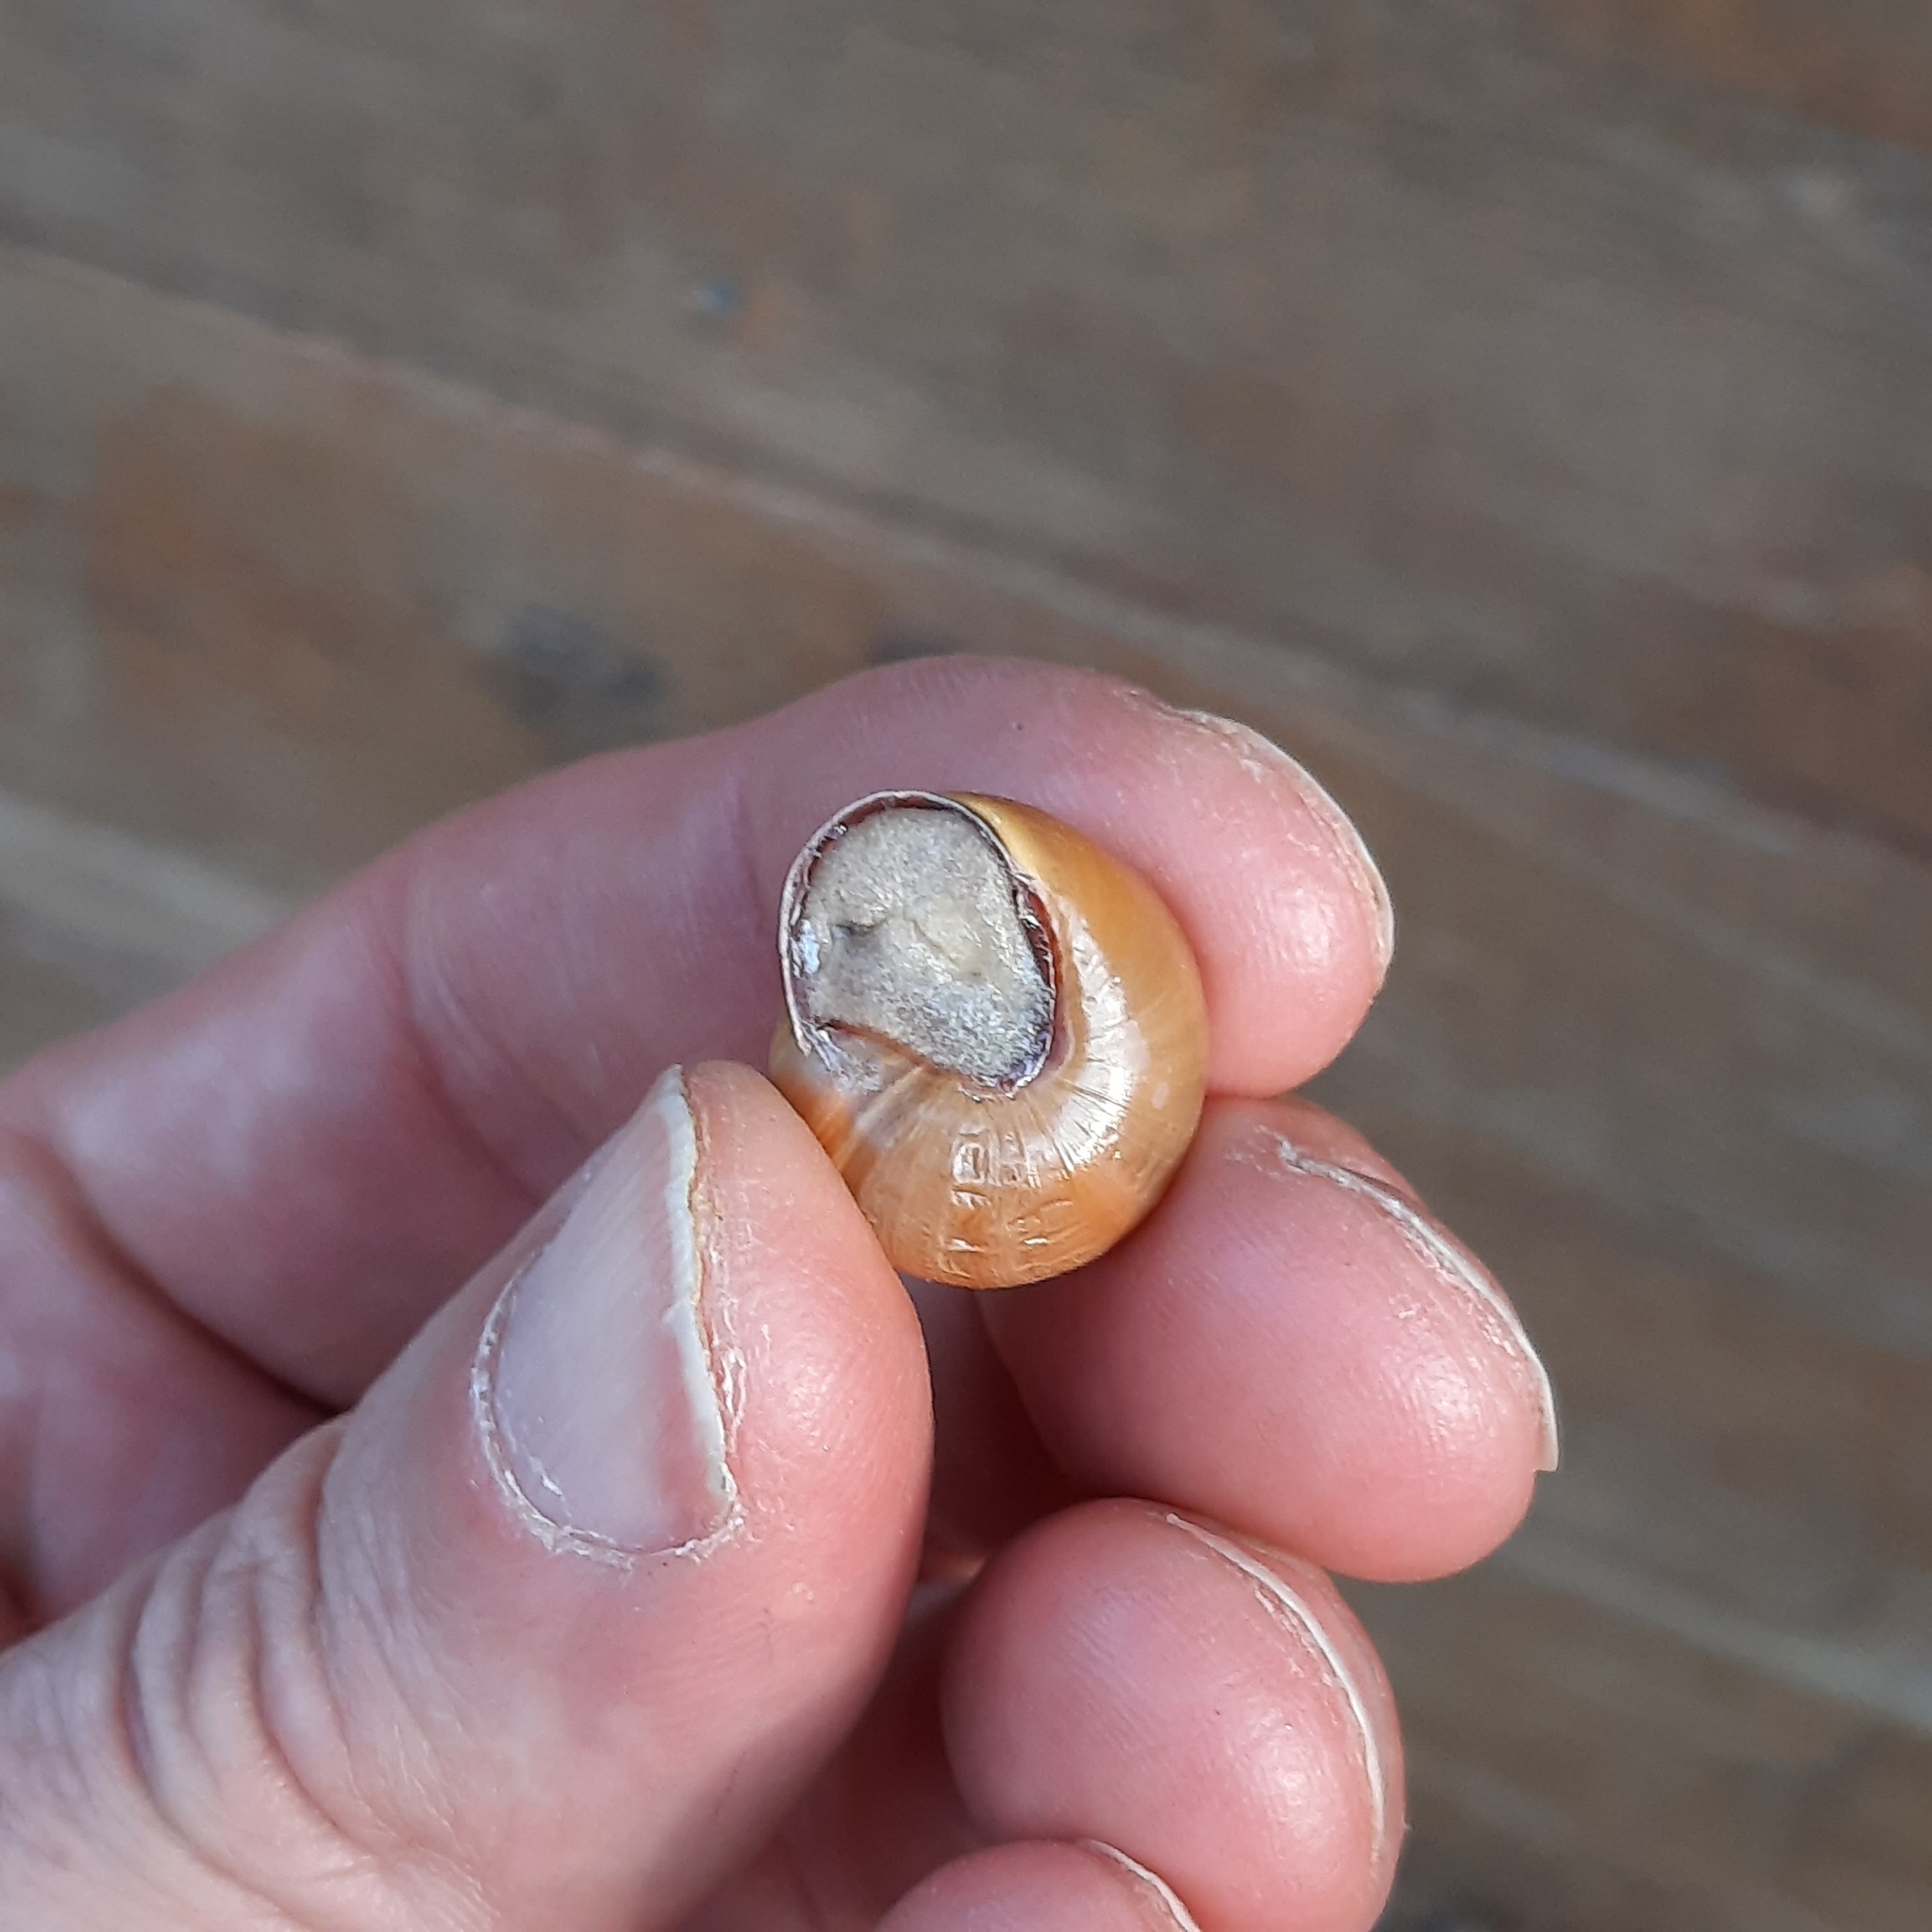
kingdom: Animalia
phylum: Mollusca
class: Gastropoda
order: Stylommatophora
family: Helicidae
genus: Cepaea
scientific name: Cepaea nemoralis
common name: Grovesnail
